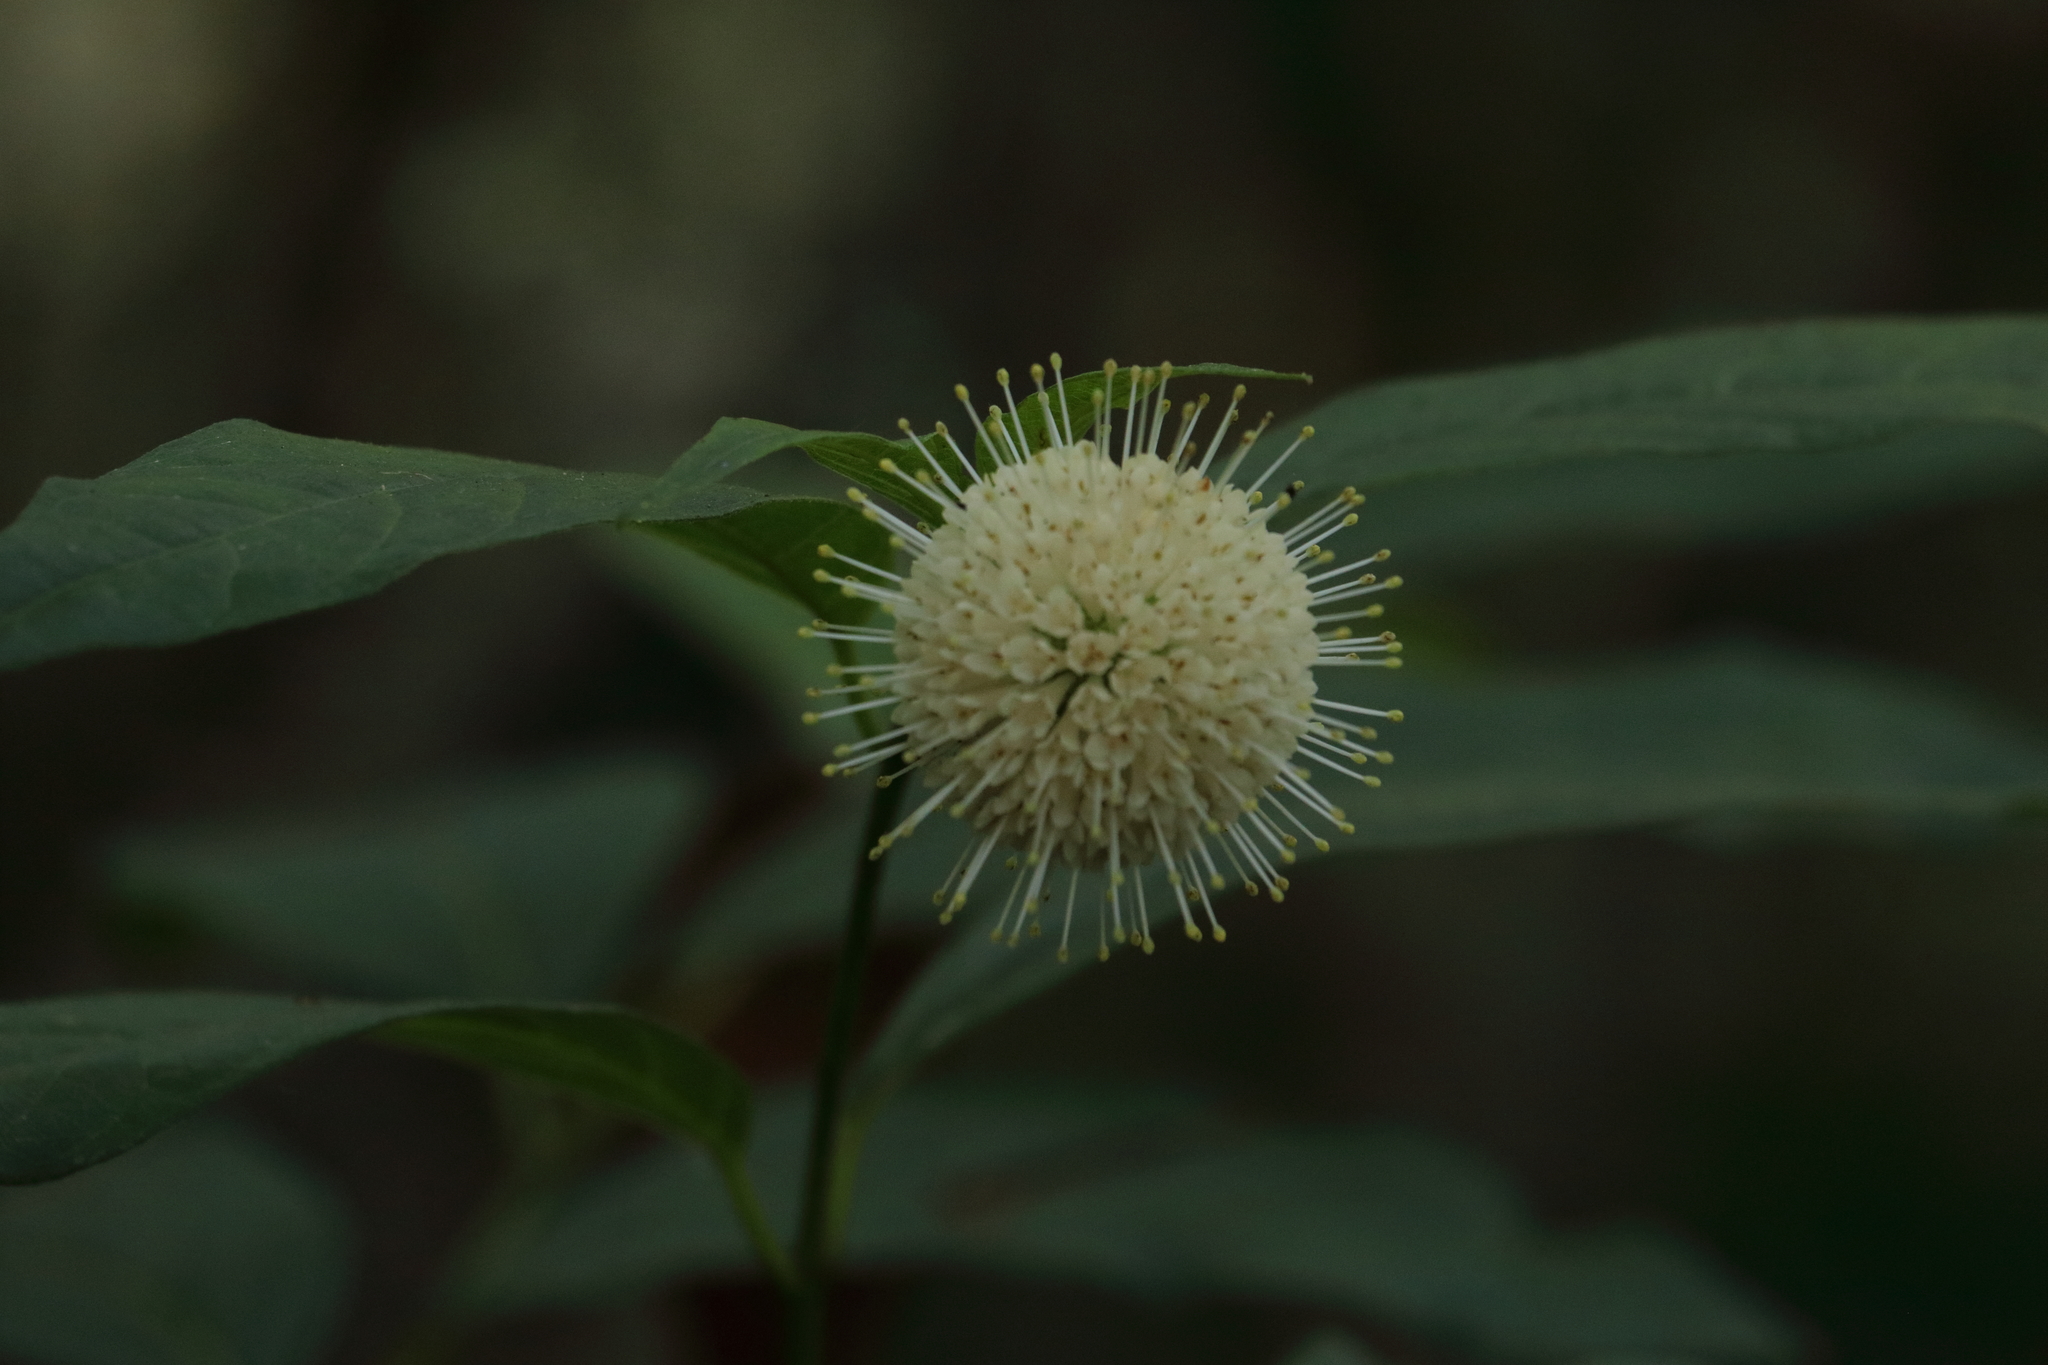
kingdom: Plantae
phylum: Tracheophyta
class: Magnoliopsida
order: Gentianales
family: Rubiaceae
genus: Cephalanthus
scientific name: Cephalanthus occidentalis
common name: Button-willow
